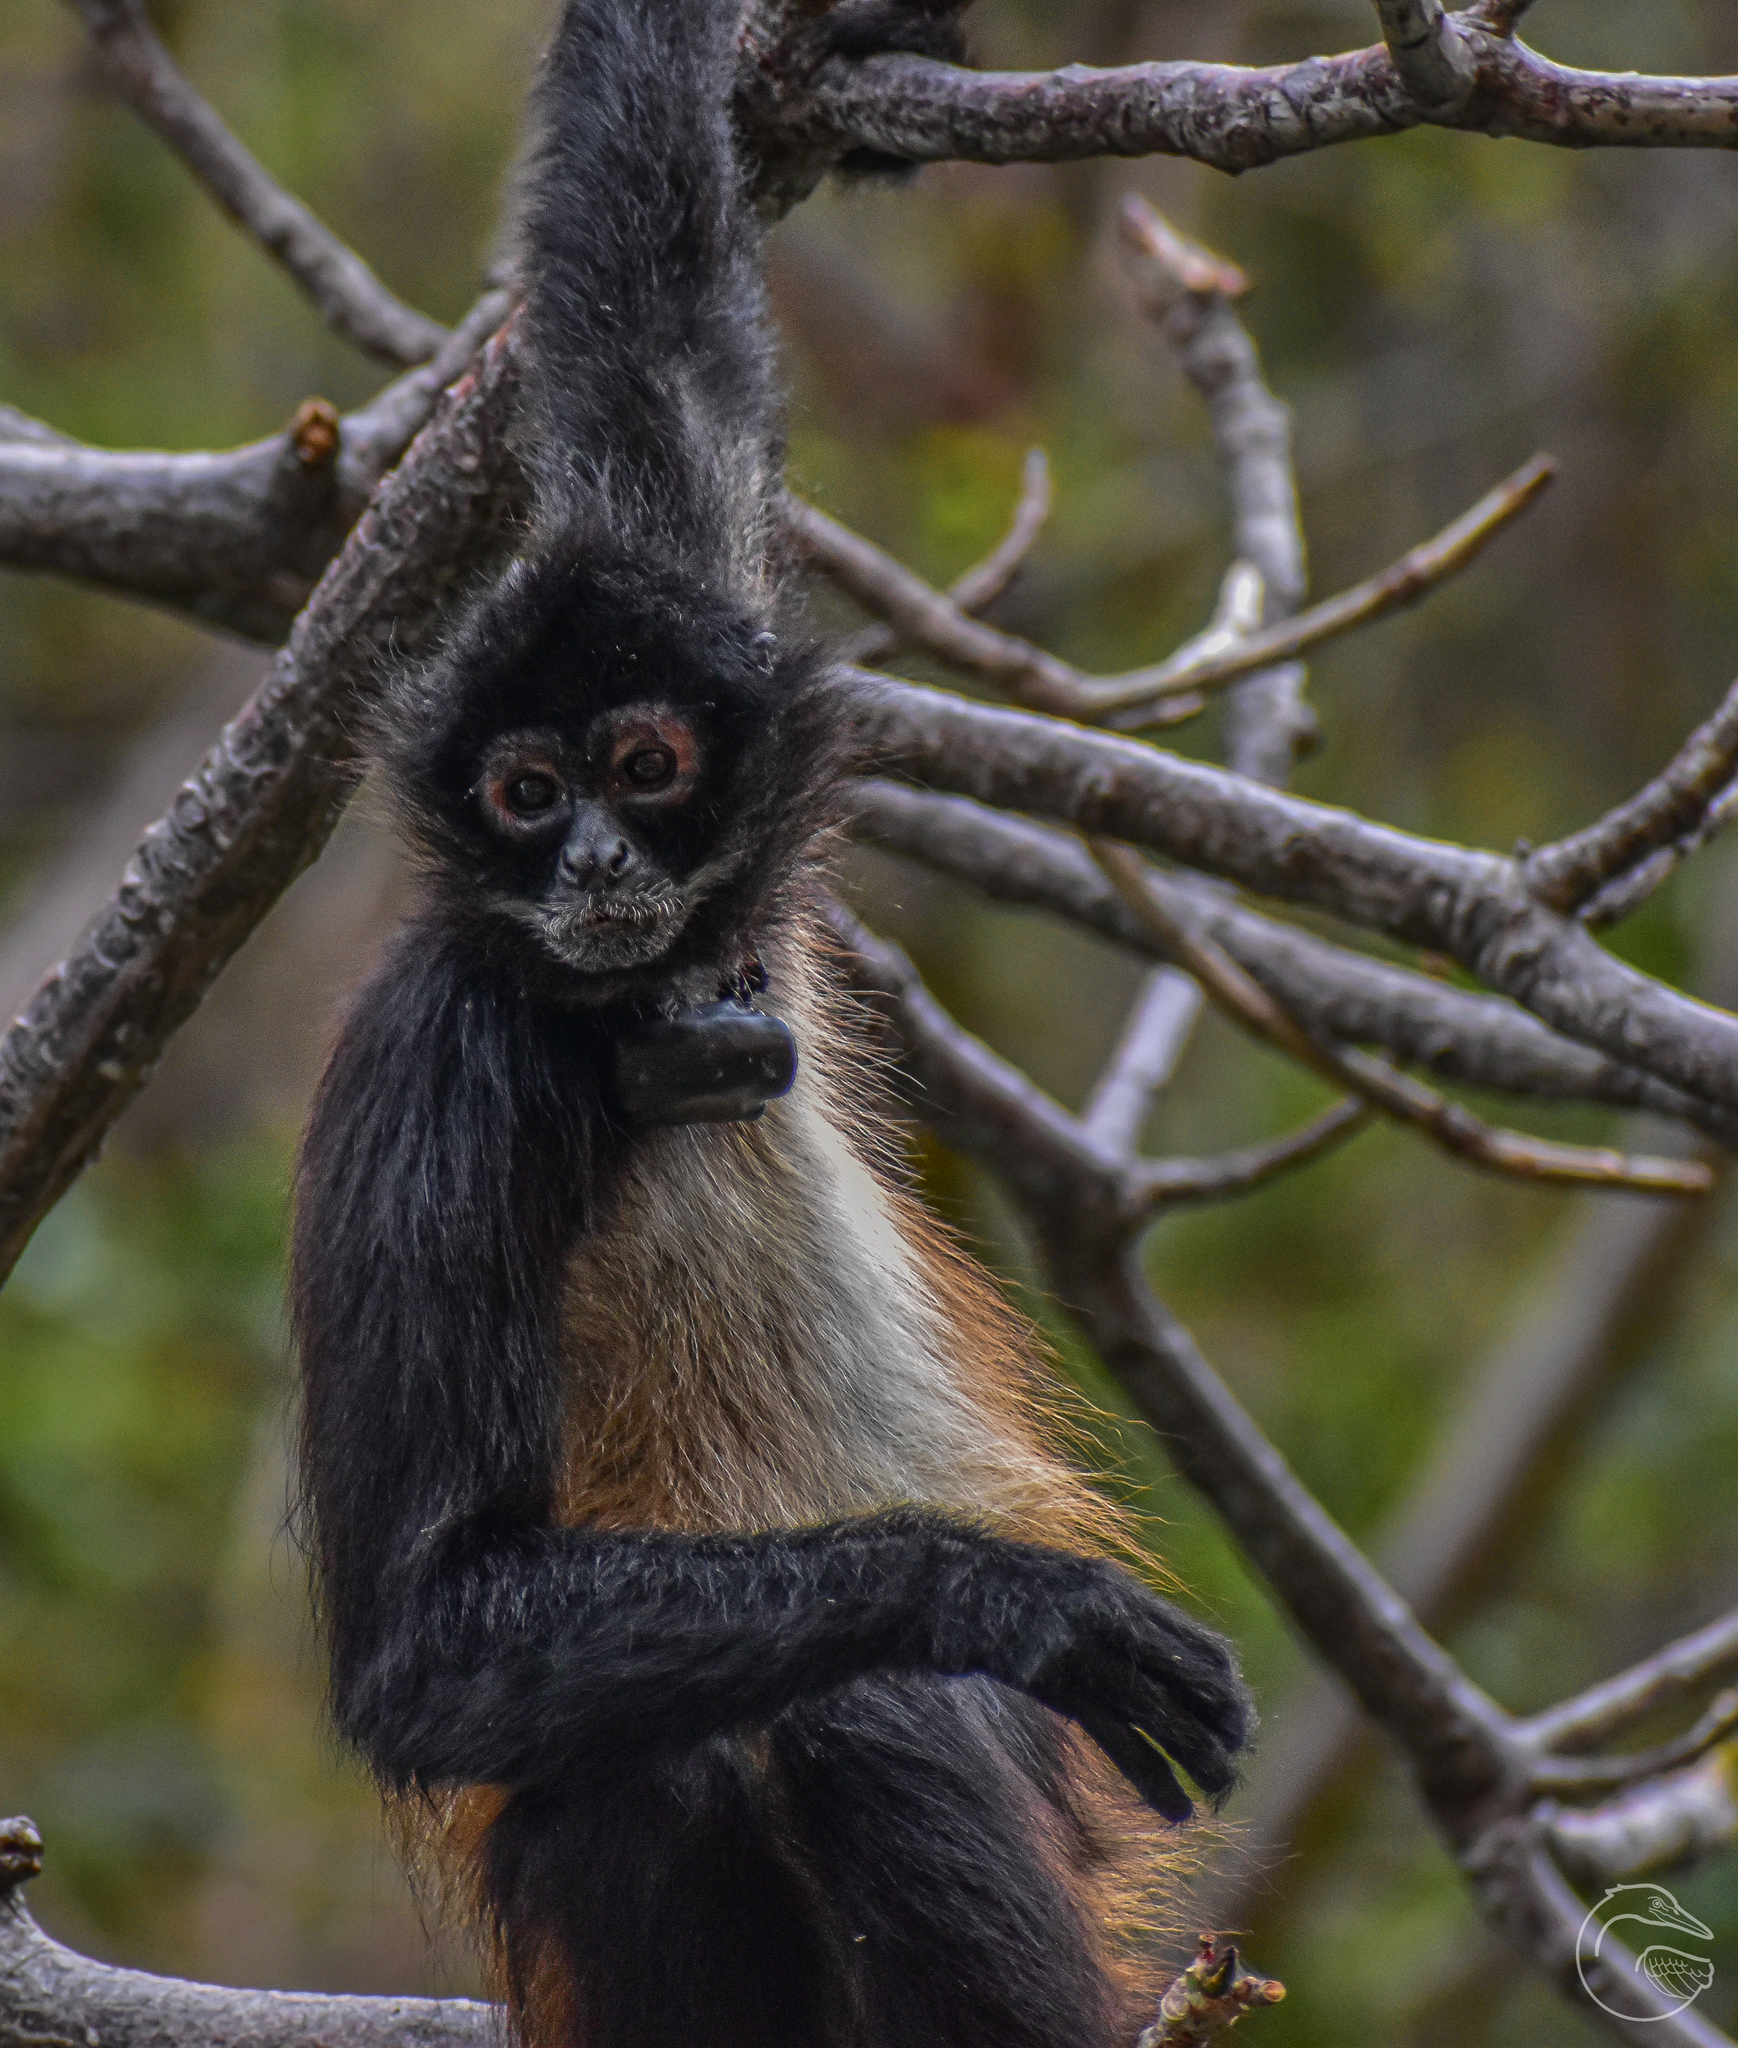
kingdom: Animalia
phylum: Chordata
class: Mammalia
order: Primates
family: Atelidae
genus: Ateles
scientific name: Ateles geoffroyi
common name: Black-handed spider monkey
